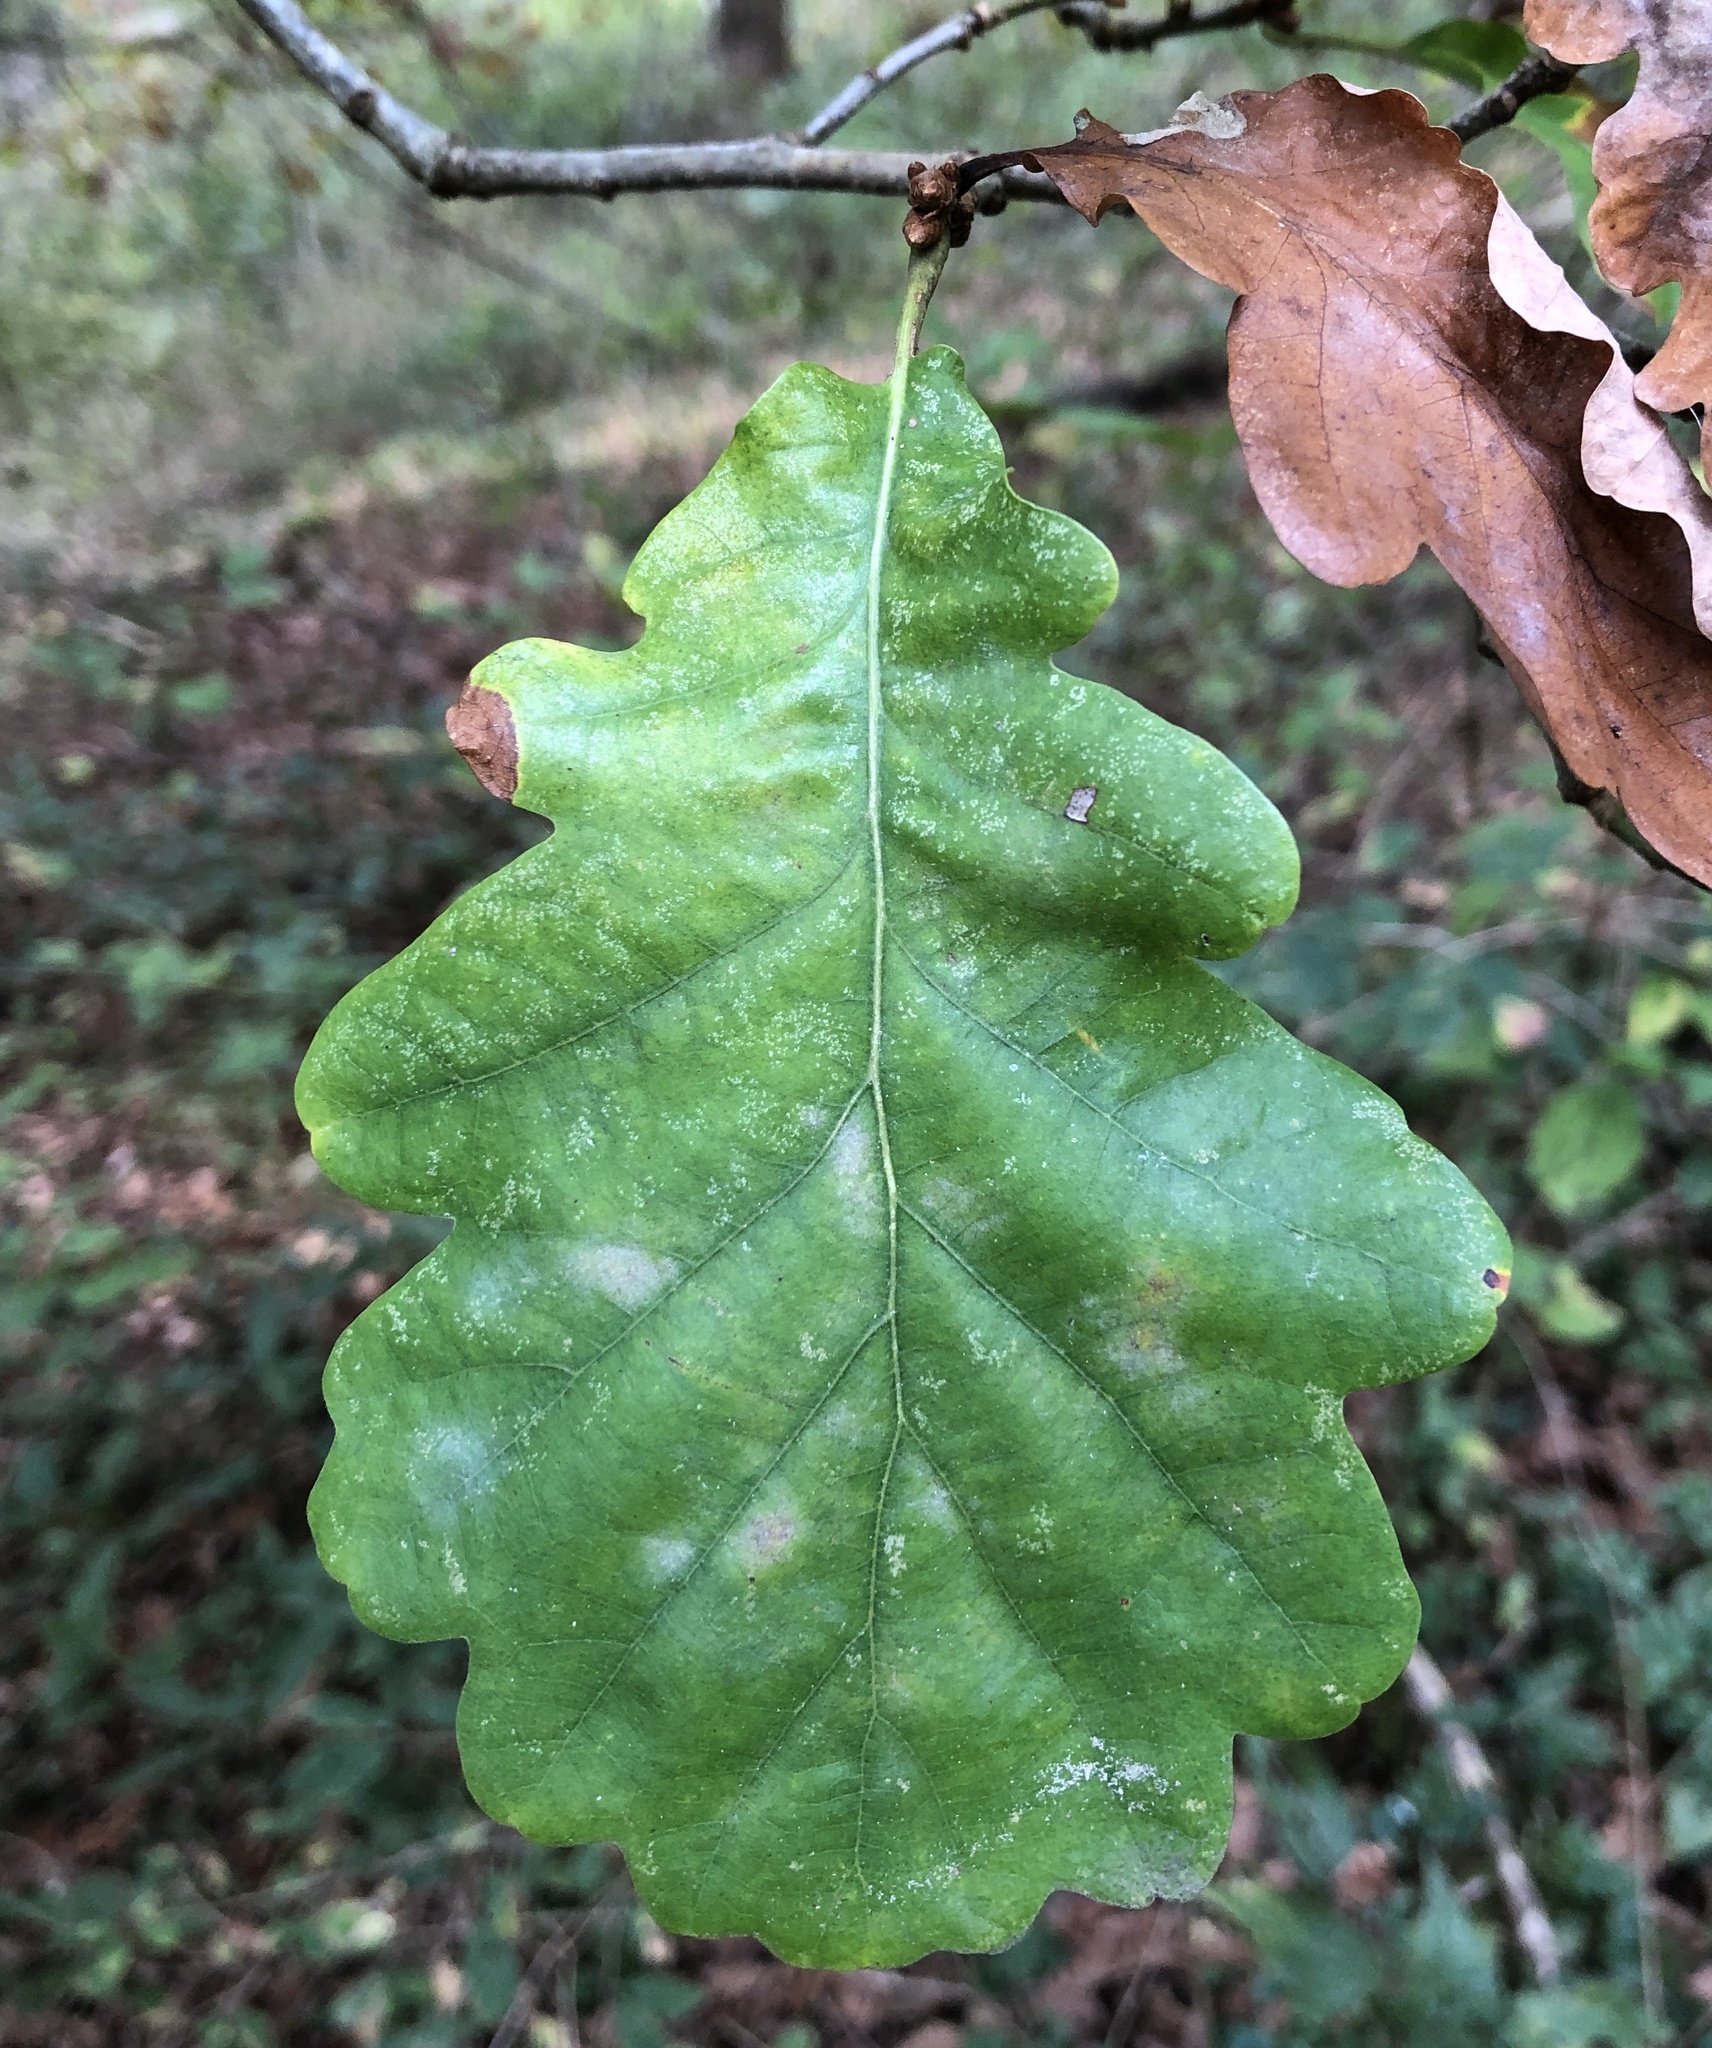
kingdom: Plantae
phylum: Tracheophyta
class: Magnoliopsida
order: Fagales
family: Fagaceae
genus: Quercus
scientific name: Quercus petraea
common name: Sessile oak
